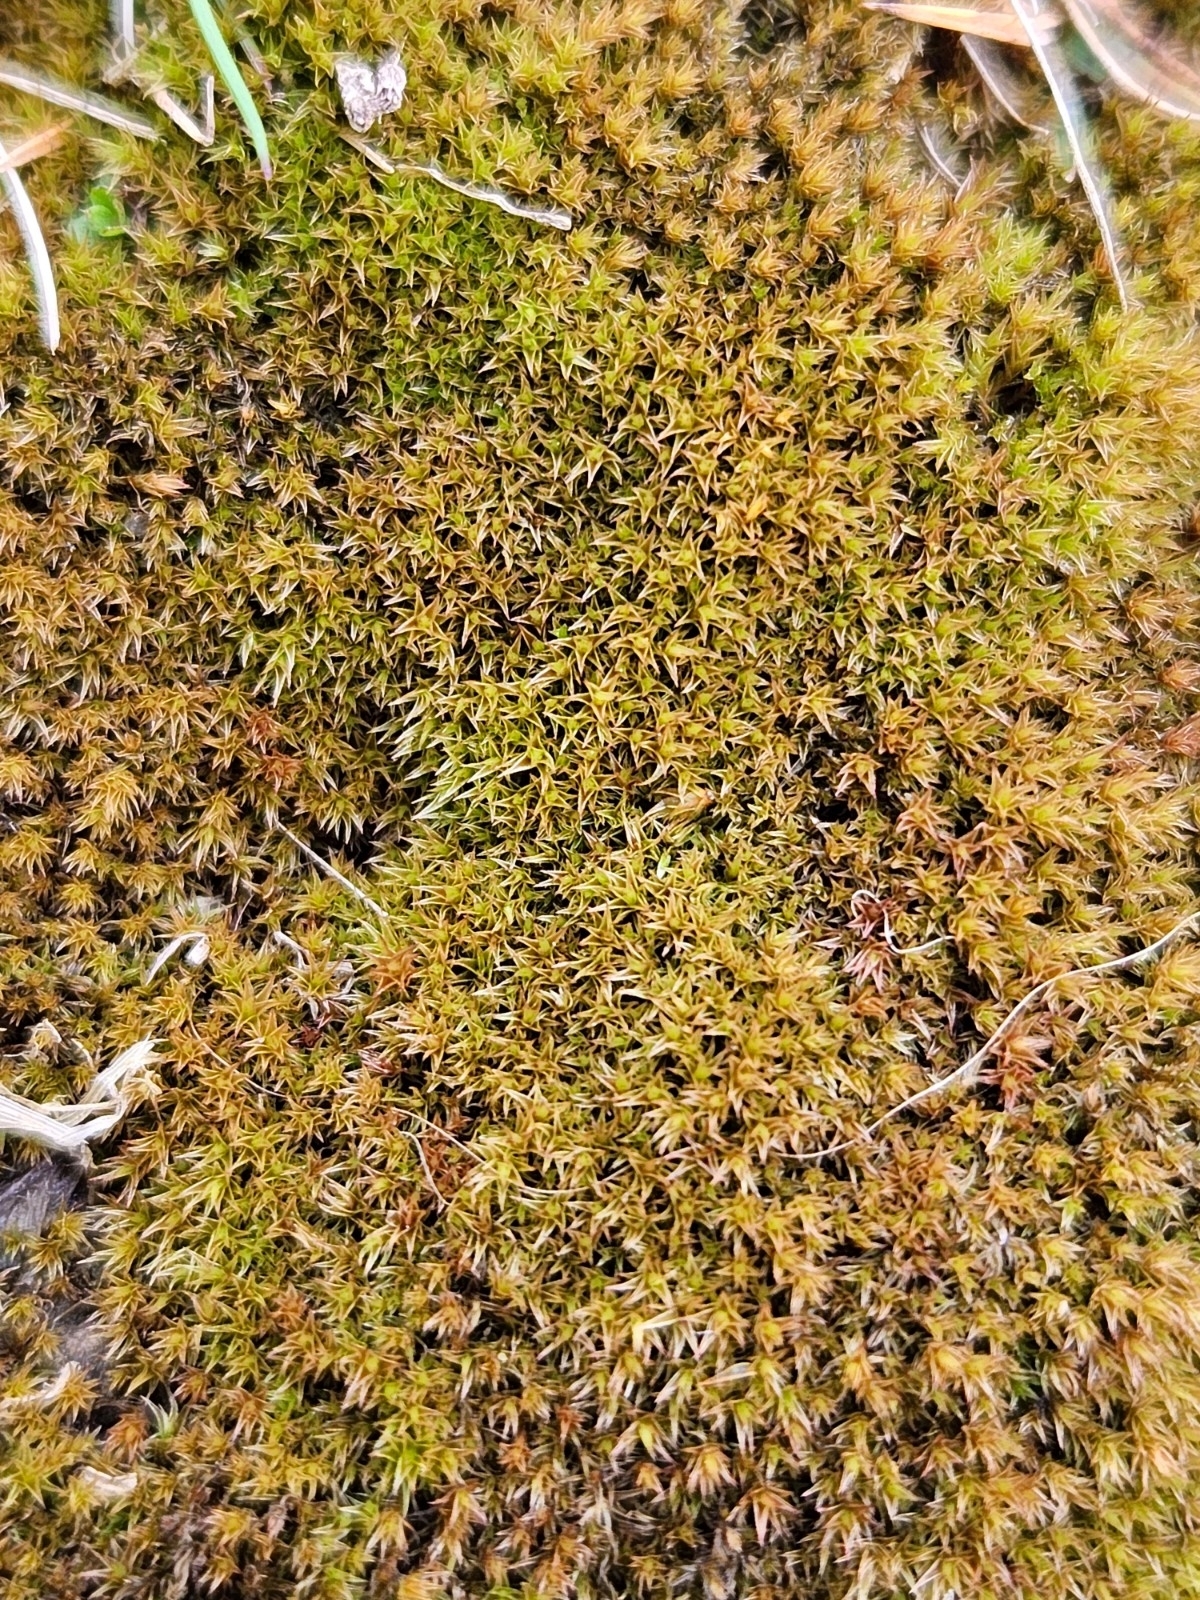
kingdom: Plantae
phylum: Bryophyta
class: Bryopsida
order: Dicranales
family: Ditrichaceae
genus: Ceratodon
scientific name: Ceratodon purpureus
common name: Redshank
